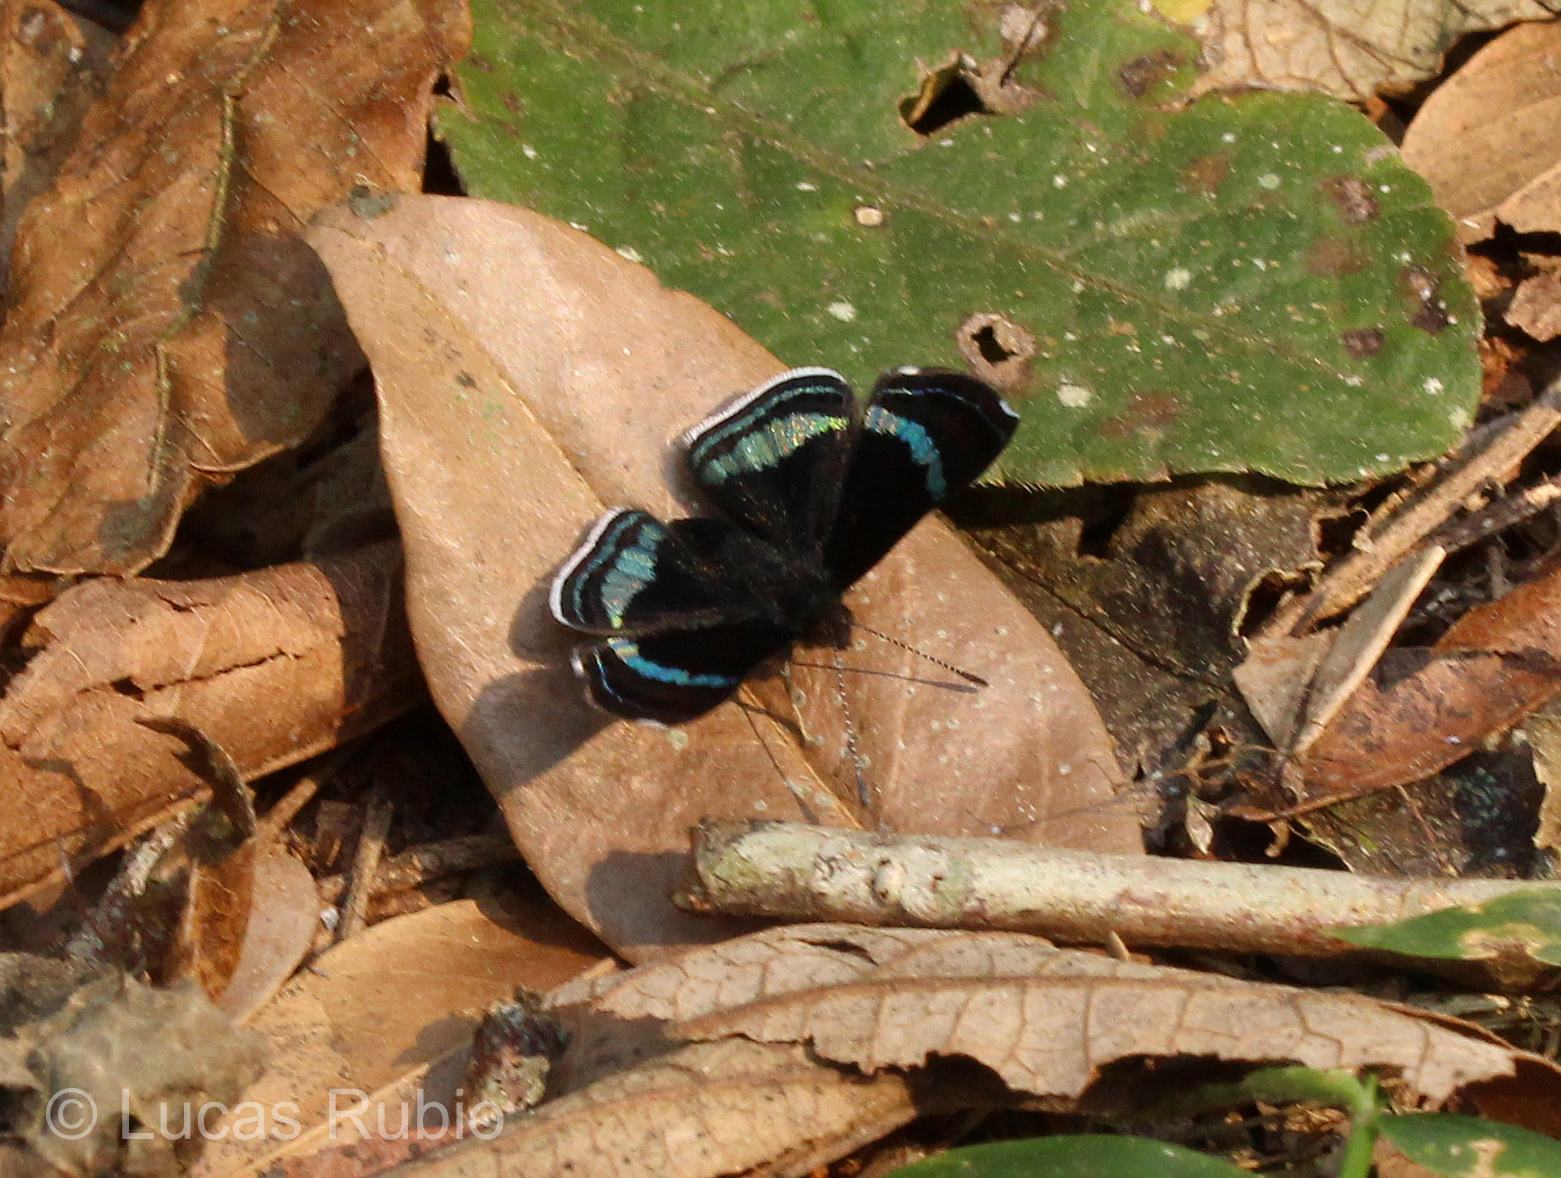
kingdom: Animalia
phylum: Arthropoda
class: Insecta
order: Lepidoptera
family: Riodinidae
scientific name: Riodinidae
